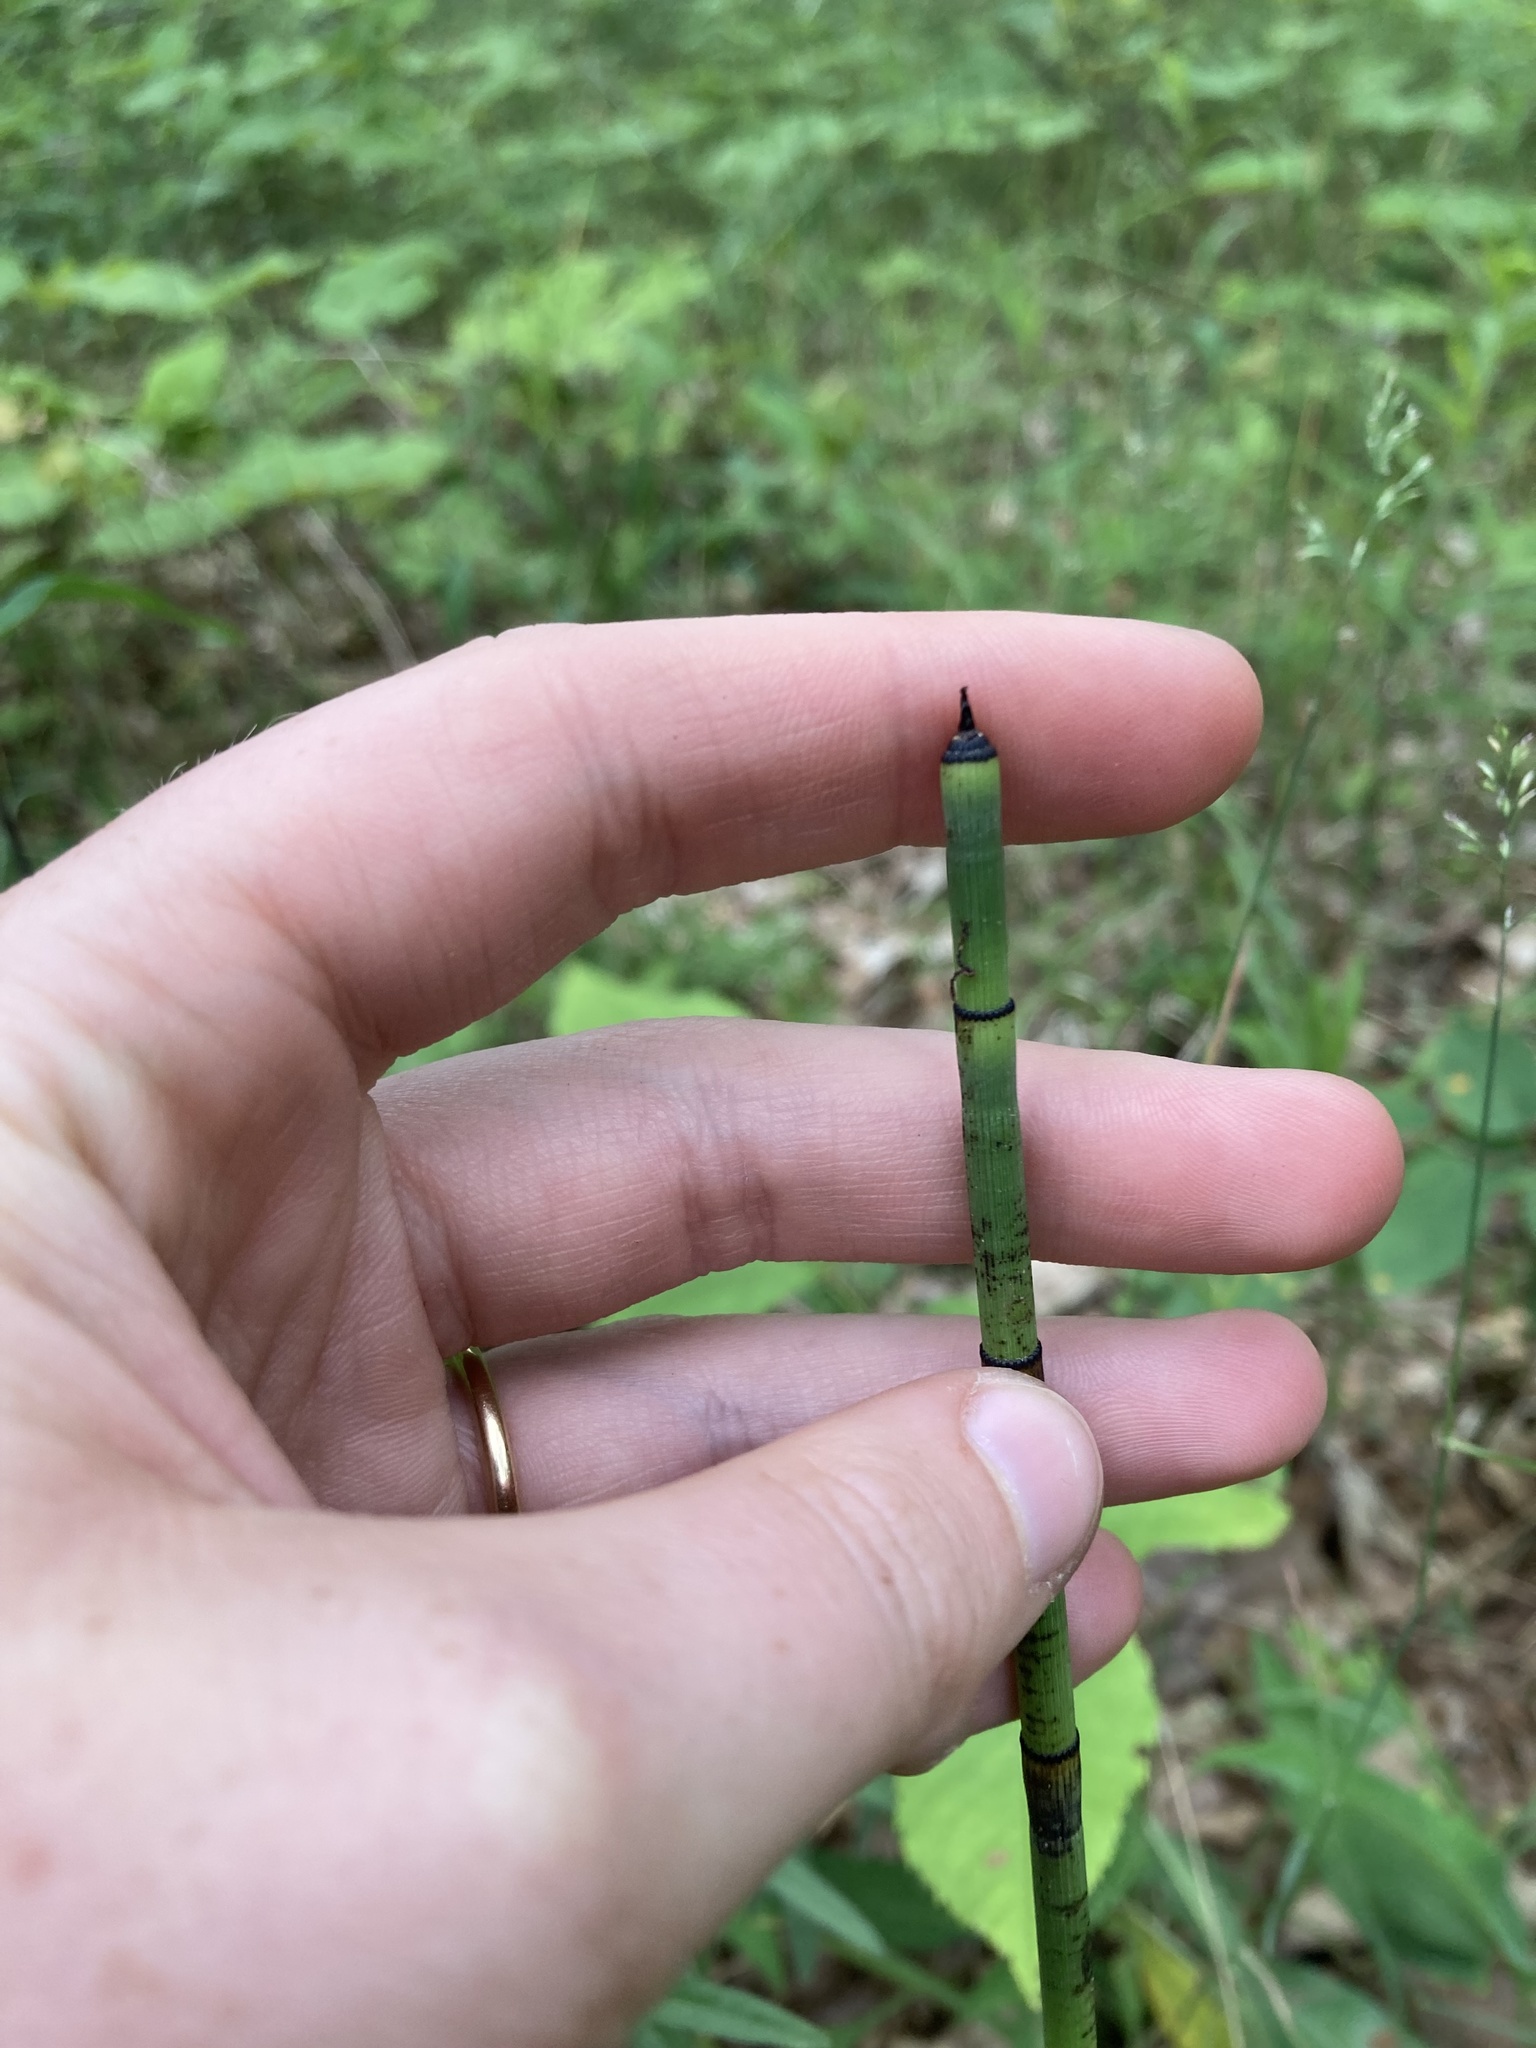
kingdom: Plantae
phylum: Tracheophyta
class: Polypodiopsida
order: Equisetales
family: Equisetaceae
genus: Equisetum
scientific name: Equisetum hyemale
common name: Rough horsetail
